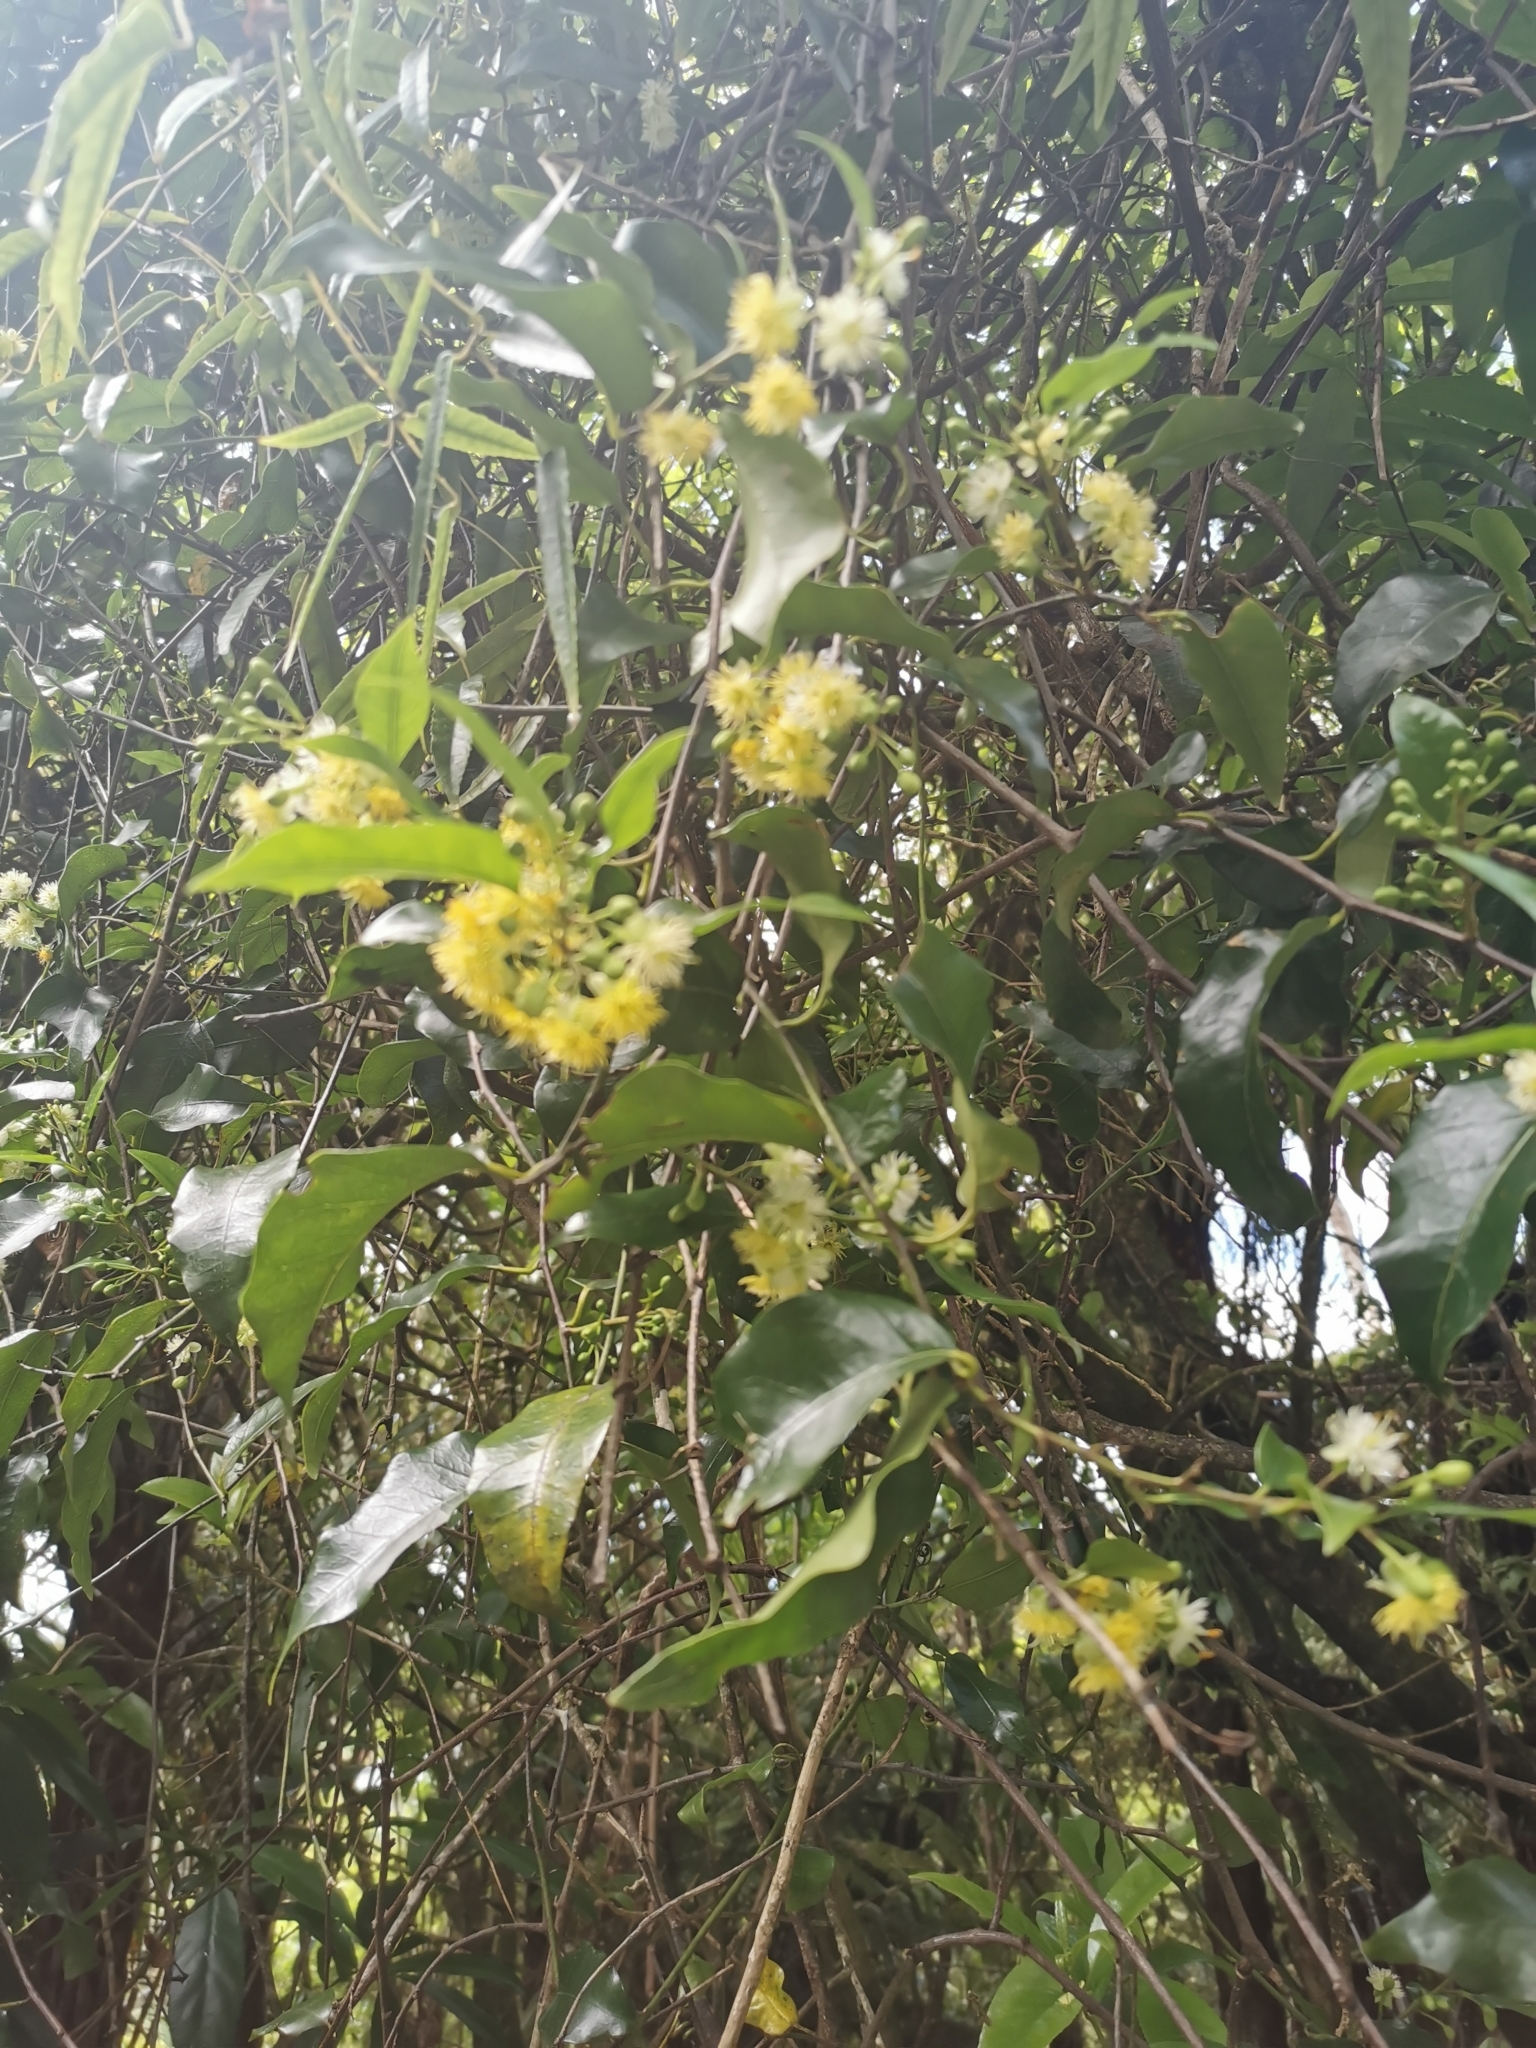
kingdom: Plantae
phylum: Tracheophyta
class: Magnoliopsida
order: Malpighiales
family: Passifloraceae
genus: Passiflora
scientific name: Passiflora tetrandra
